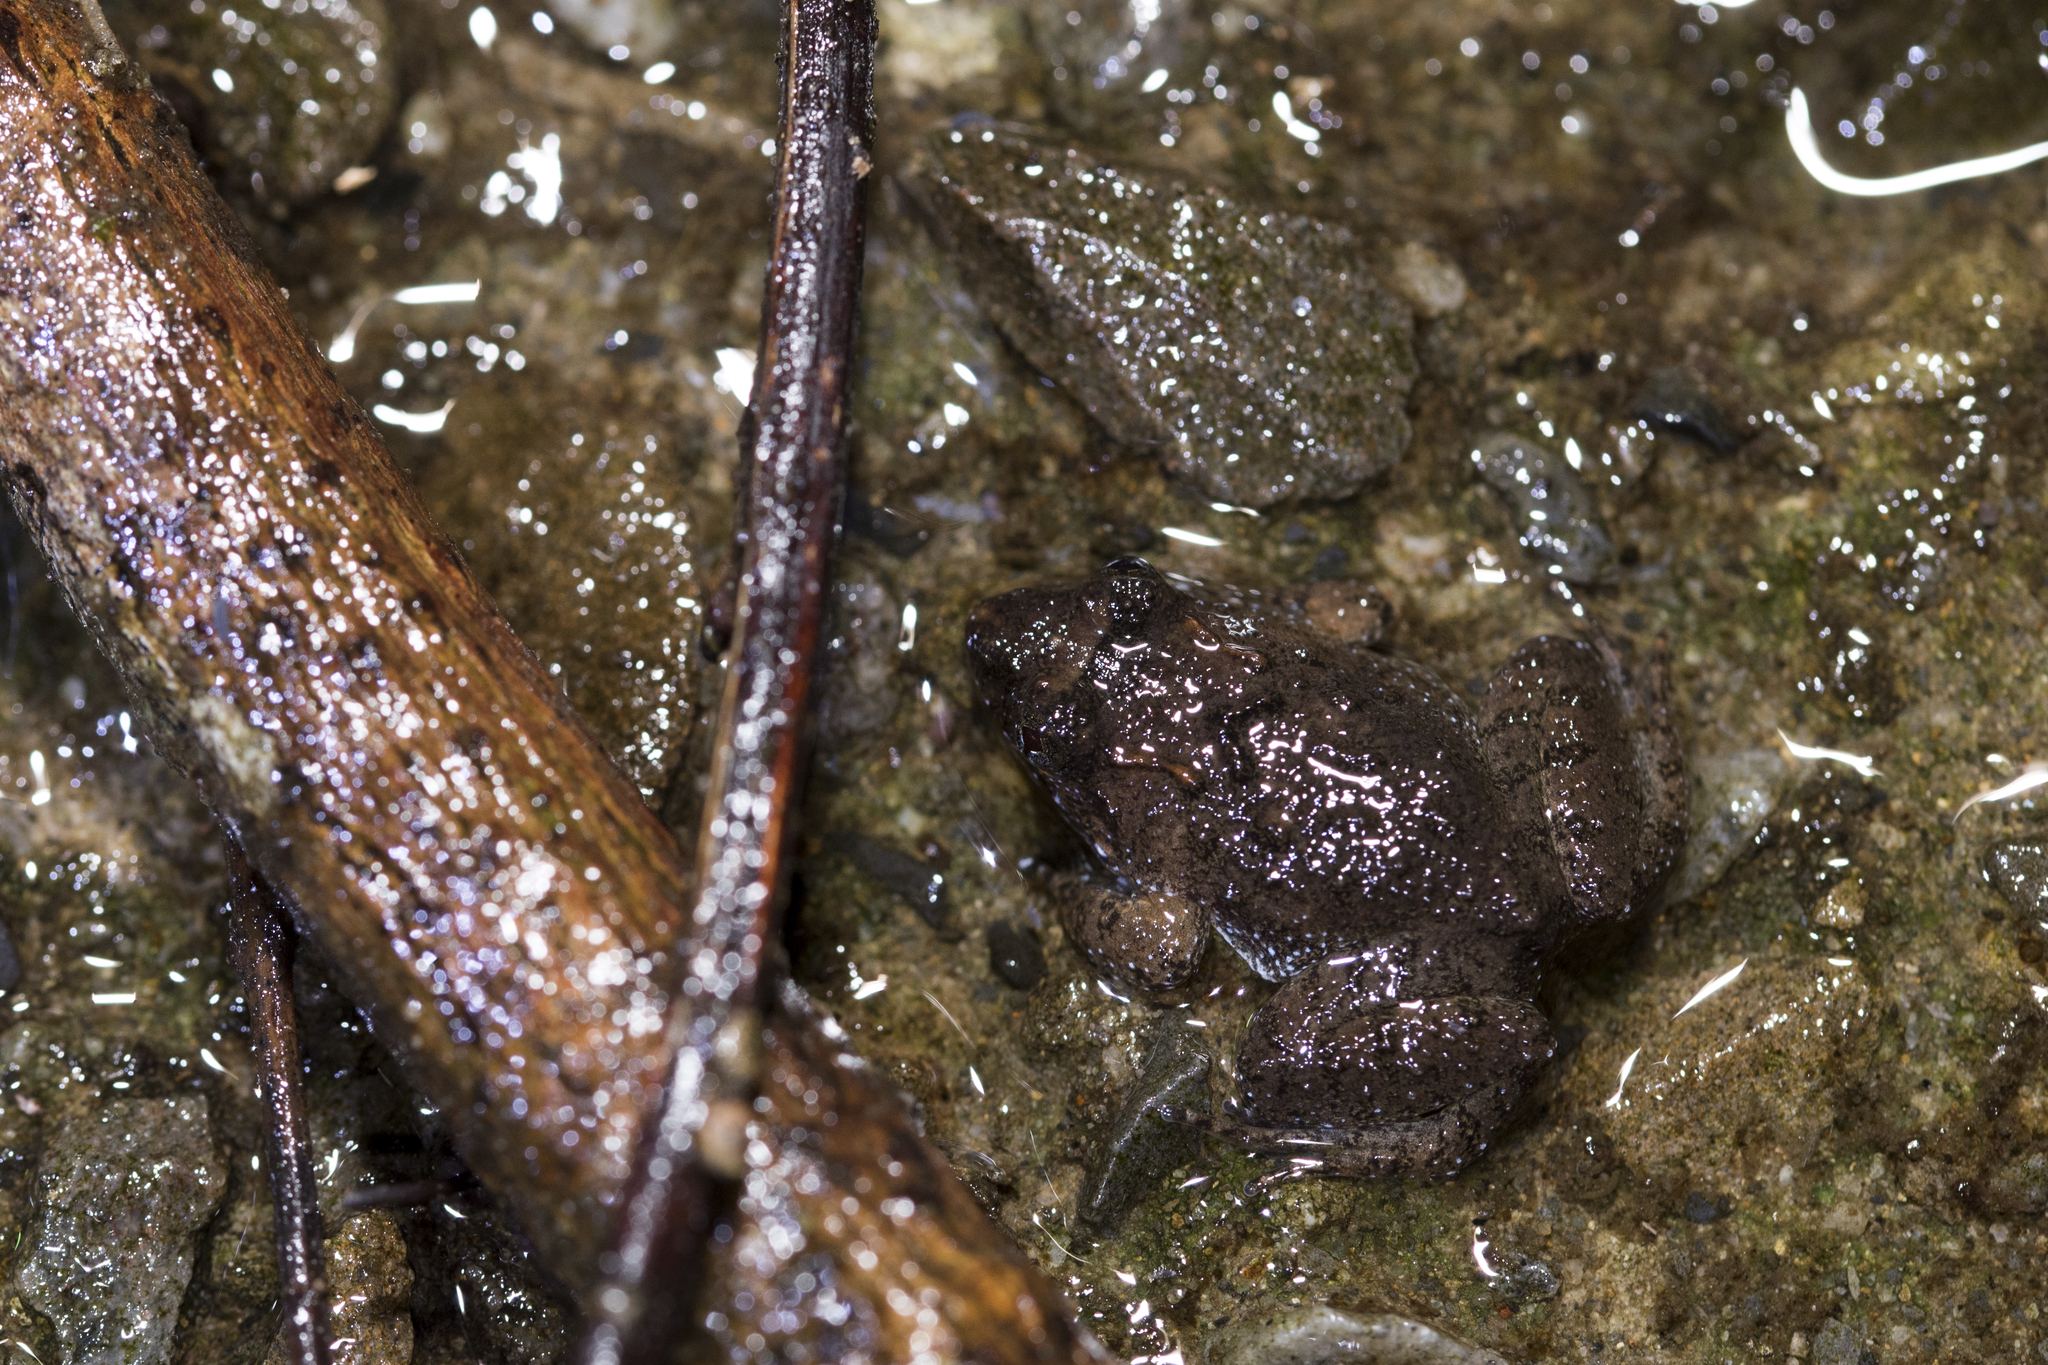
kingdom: Animalia
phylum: Chordata
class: Amphibia
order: Anura
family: Dicroglossidae
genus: Limnonectes
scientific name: Limnonectes fujianensis
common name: Fujian large-headed frog
